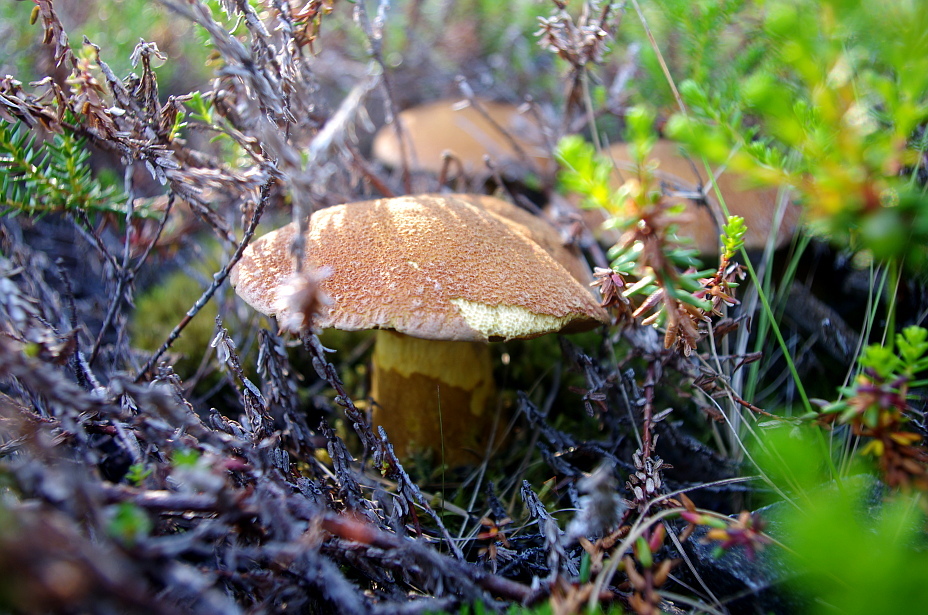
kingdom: Fungi
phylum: Basidiomycota
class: Agaricomycetes
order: Boletales
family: Suillaceae
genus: Suillus
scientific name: Suillus variegatus
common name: Velvet bolete
